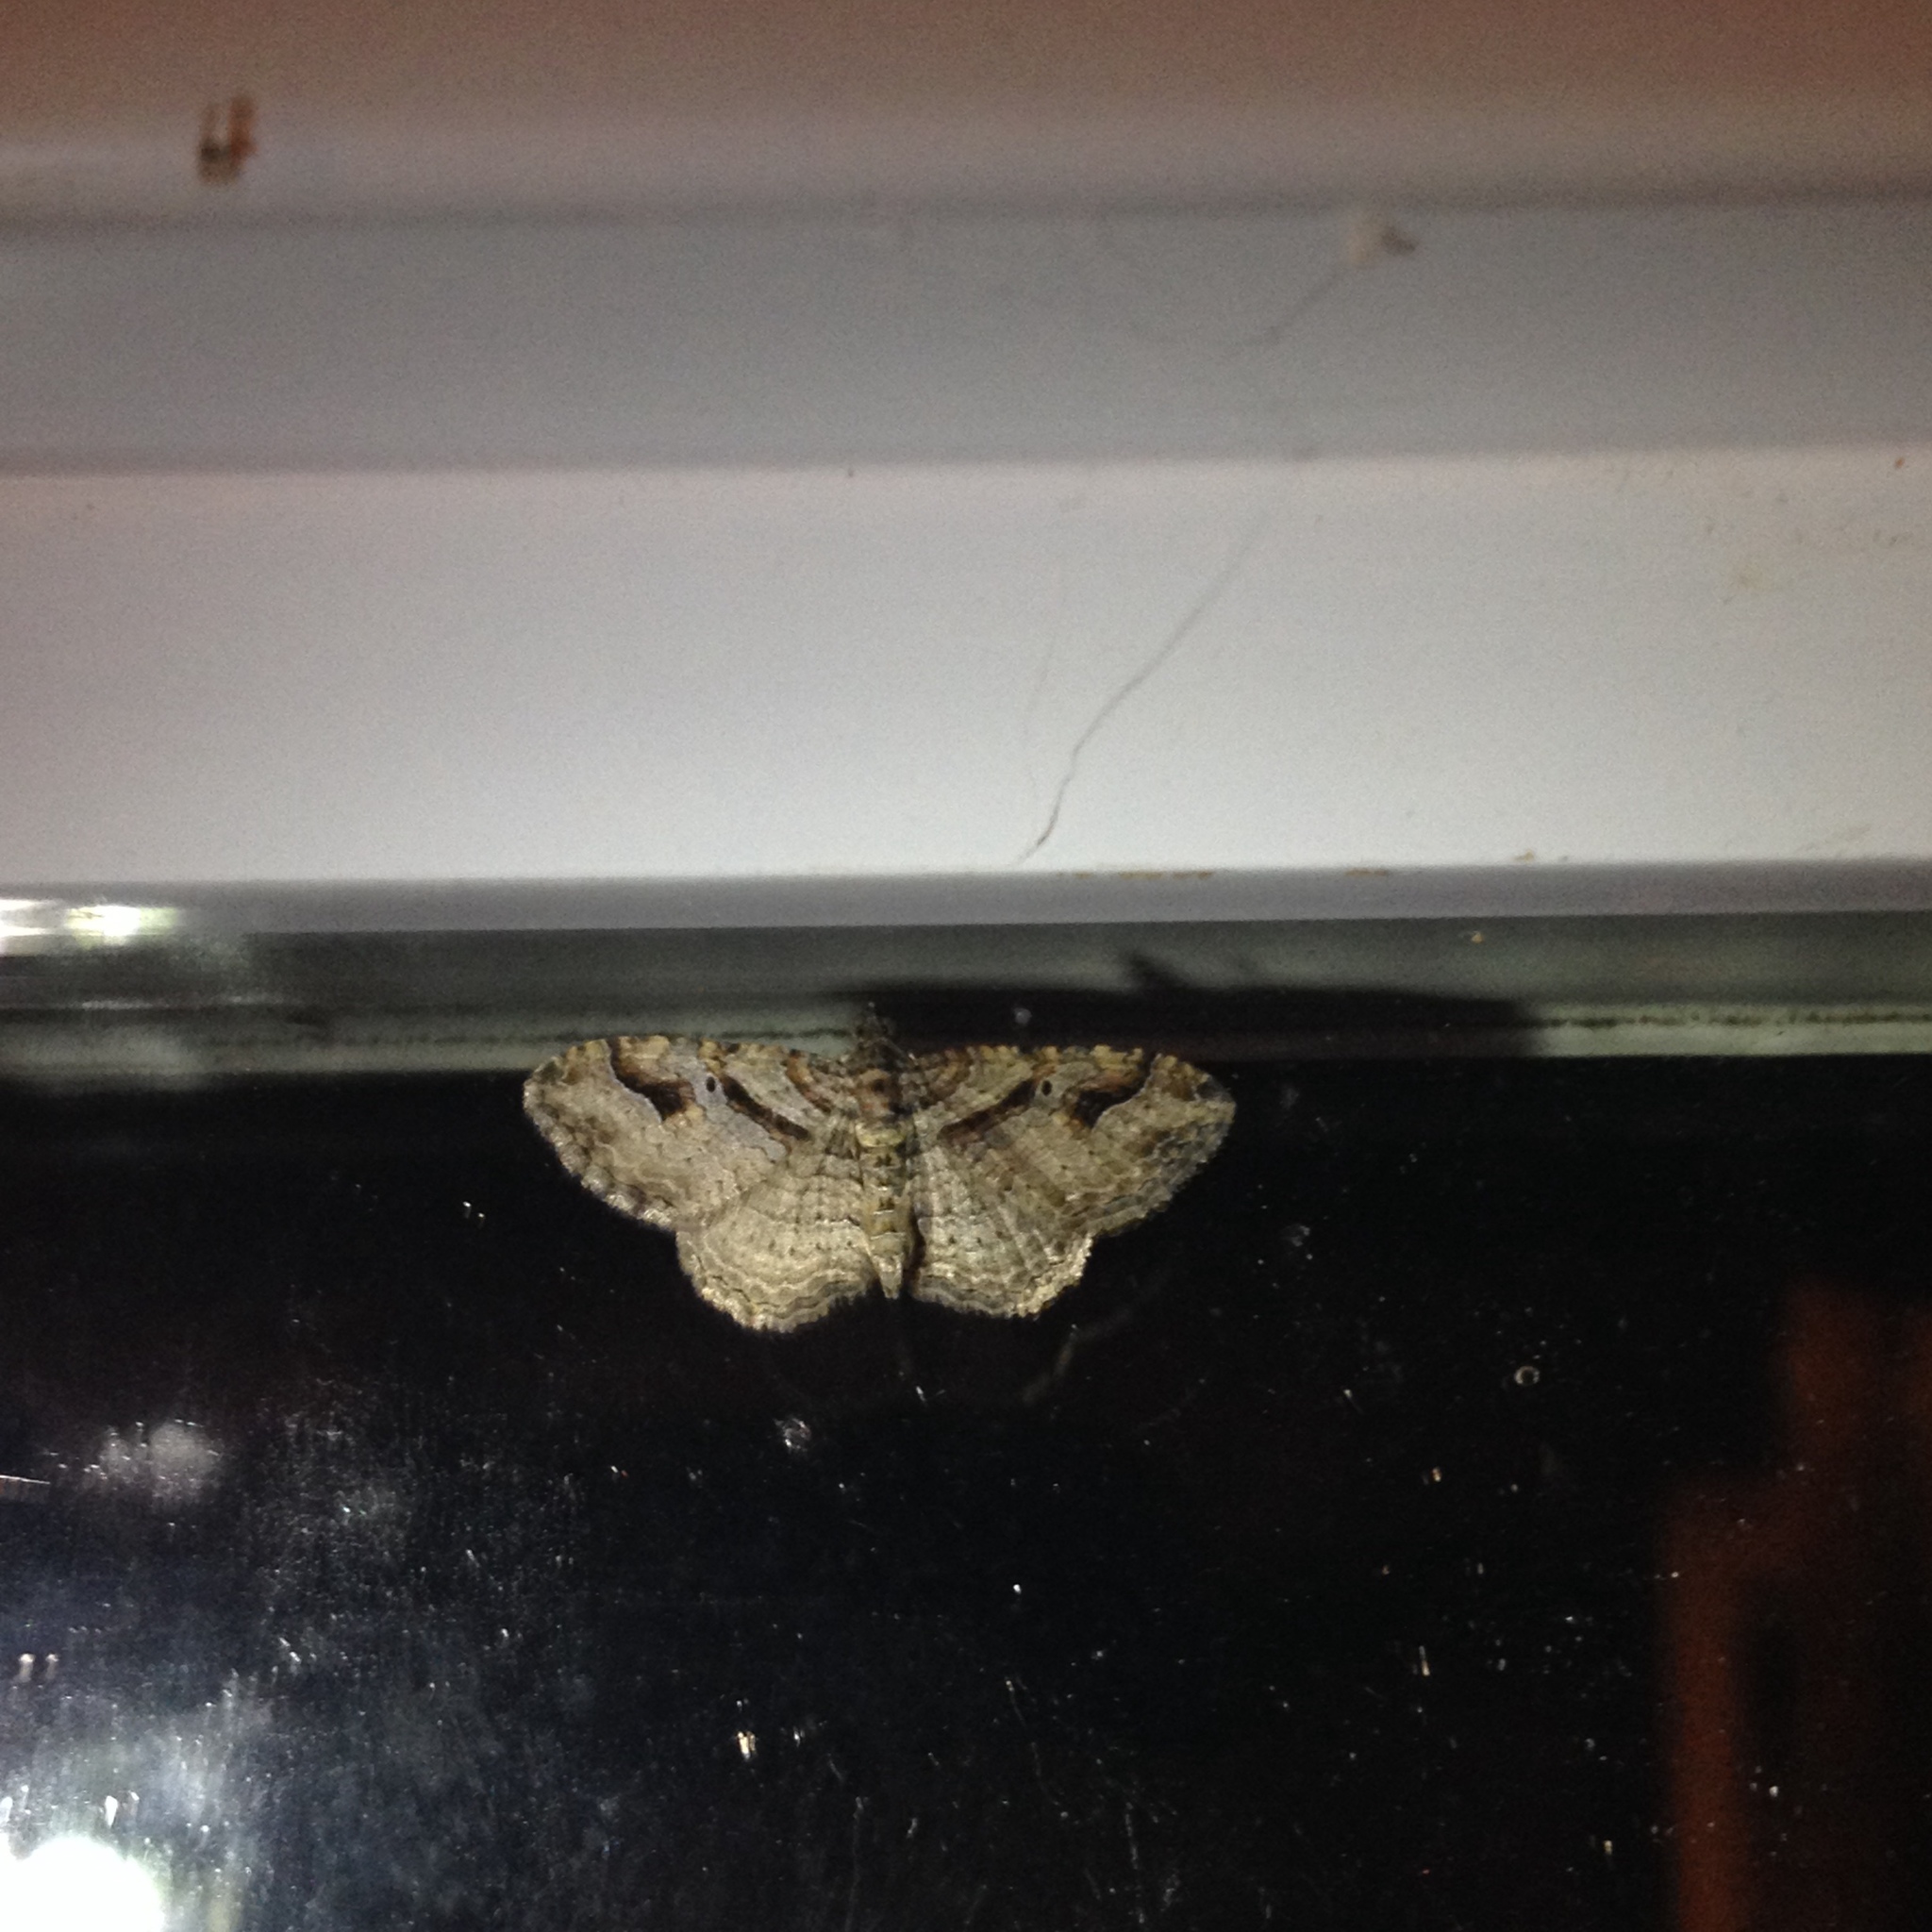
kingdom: Animalia
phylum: Arthropoda
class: Insecta
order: Lepidoptera
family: Geometridae
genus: Costaconvexa
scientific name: Costaconvexa centrostrigaria
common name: Bent-line carpet
